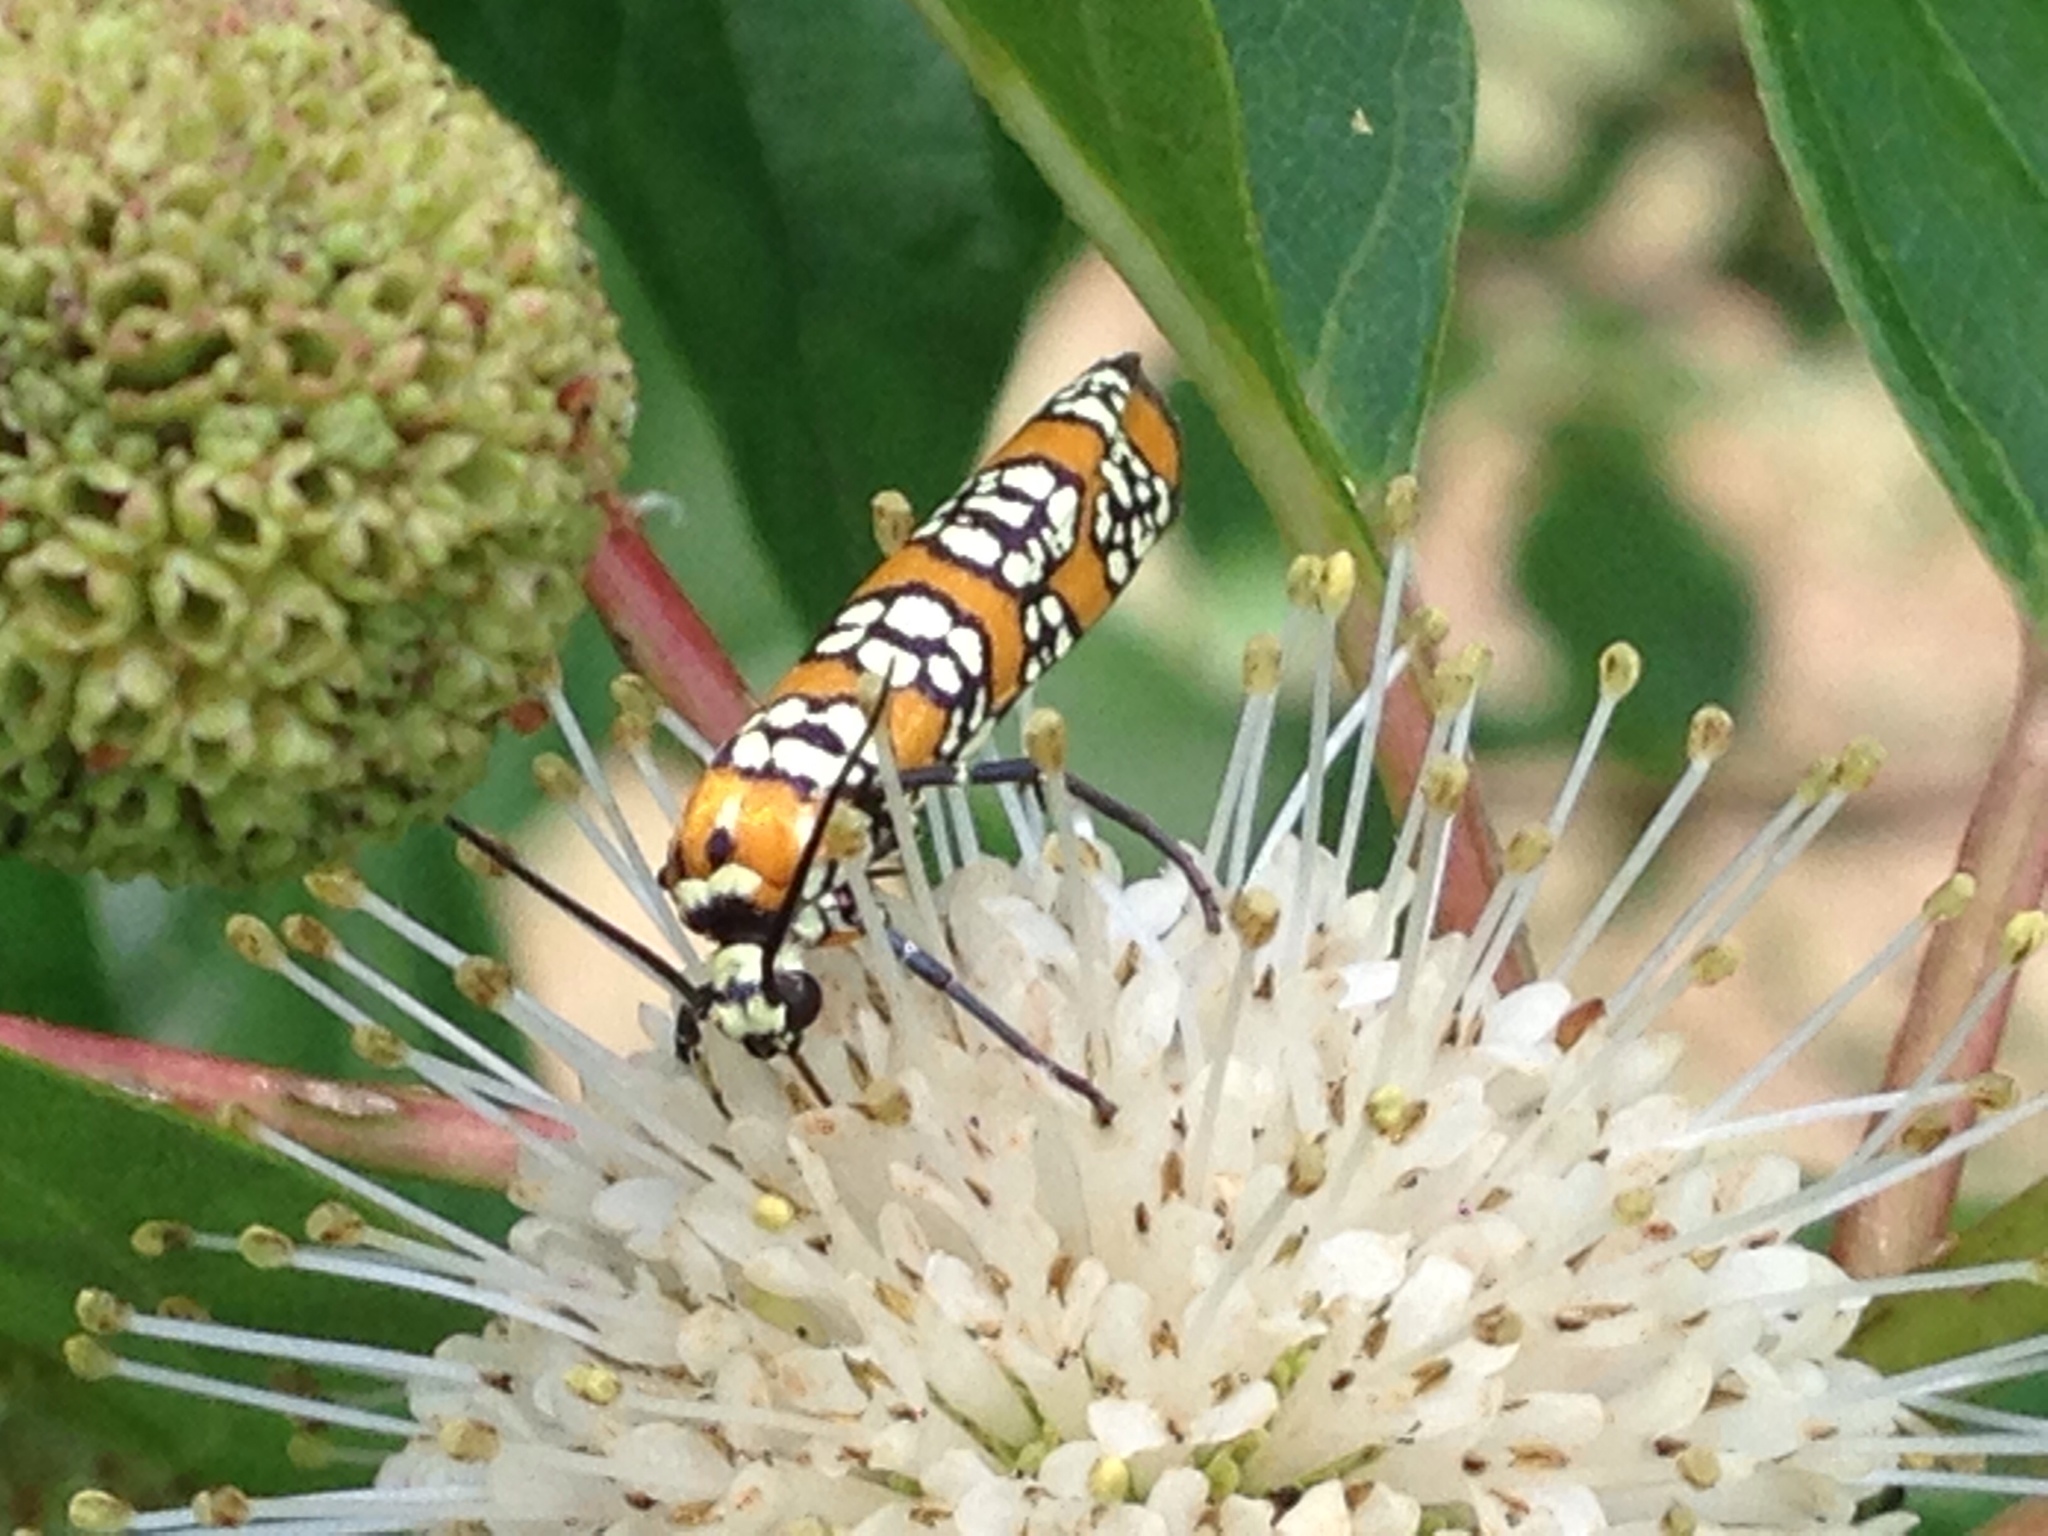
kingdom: Animalia
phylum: Arthropoda
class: Insecta
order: Lepidoptera
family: Attevidae
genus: Atteva
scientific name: Atteva punctella
